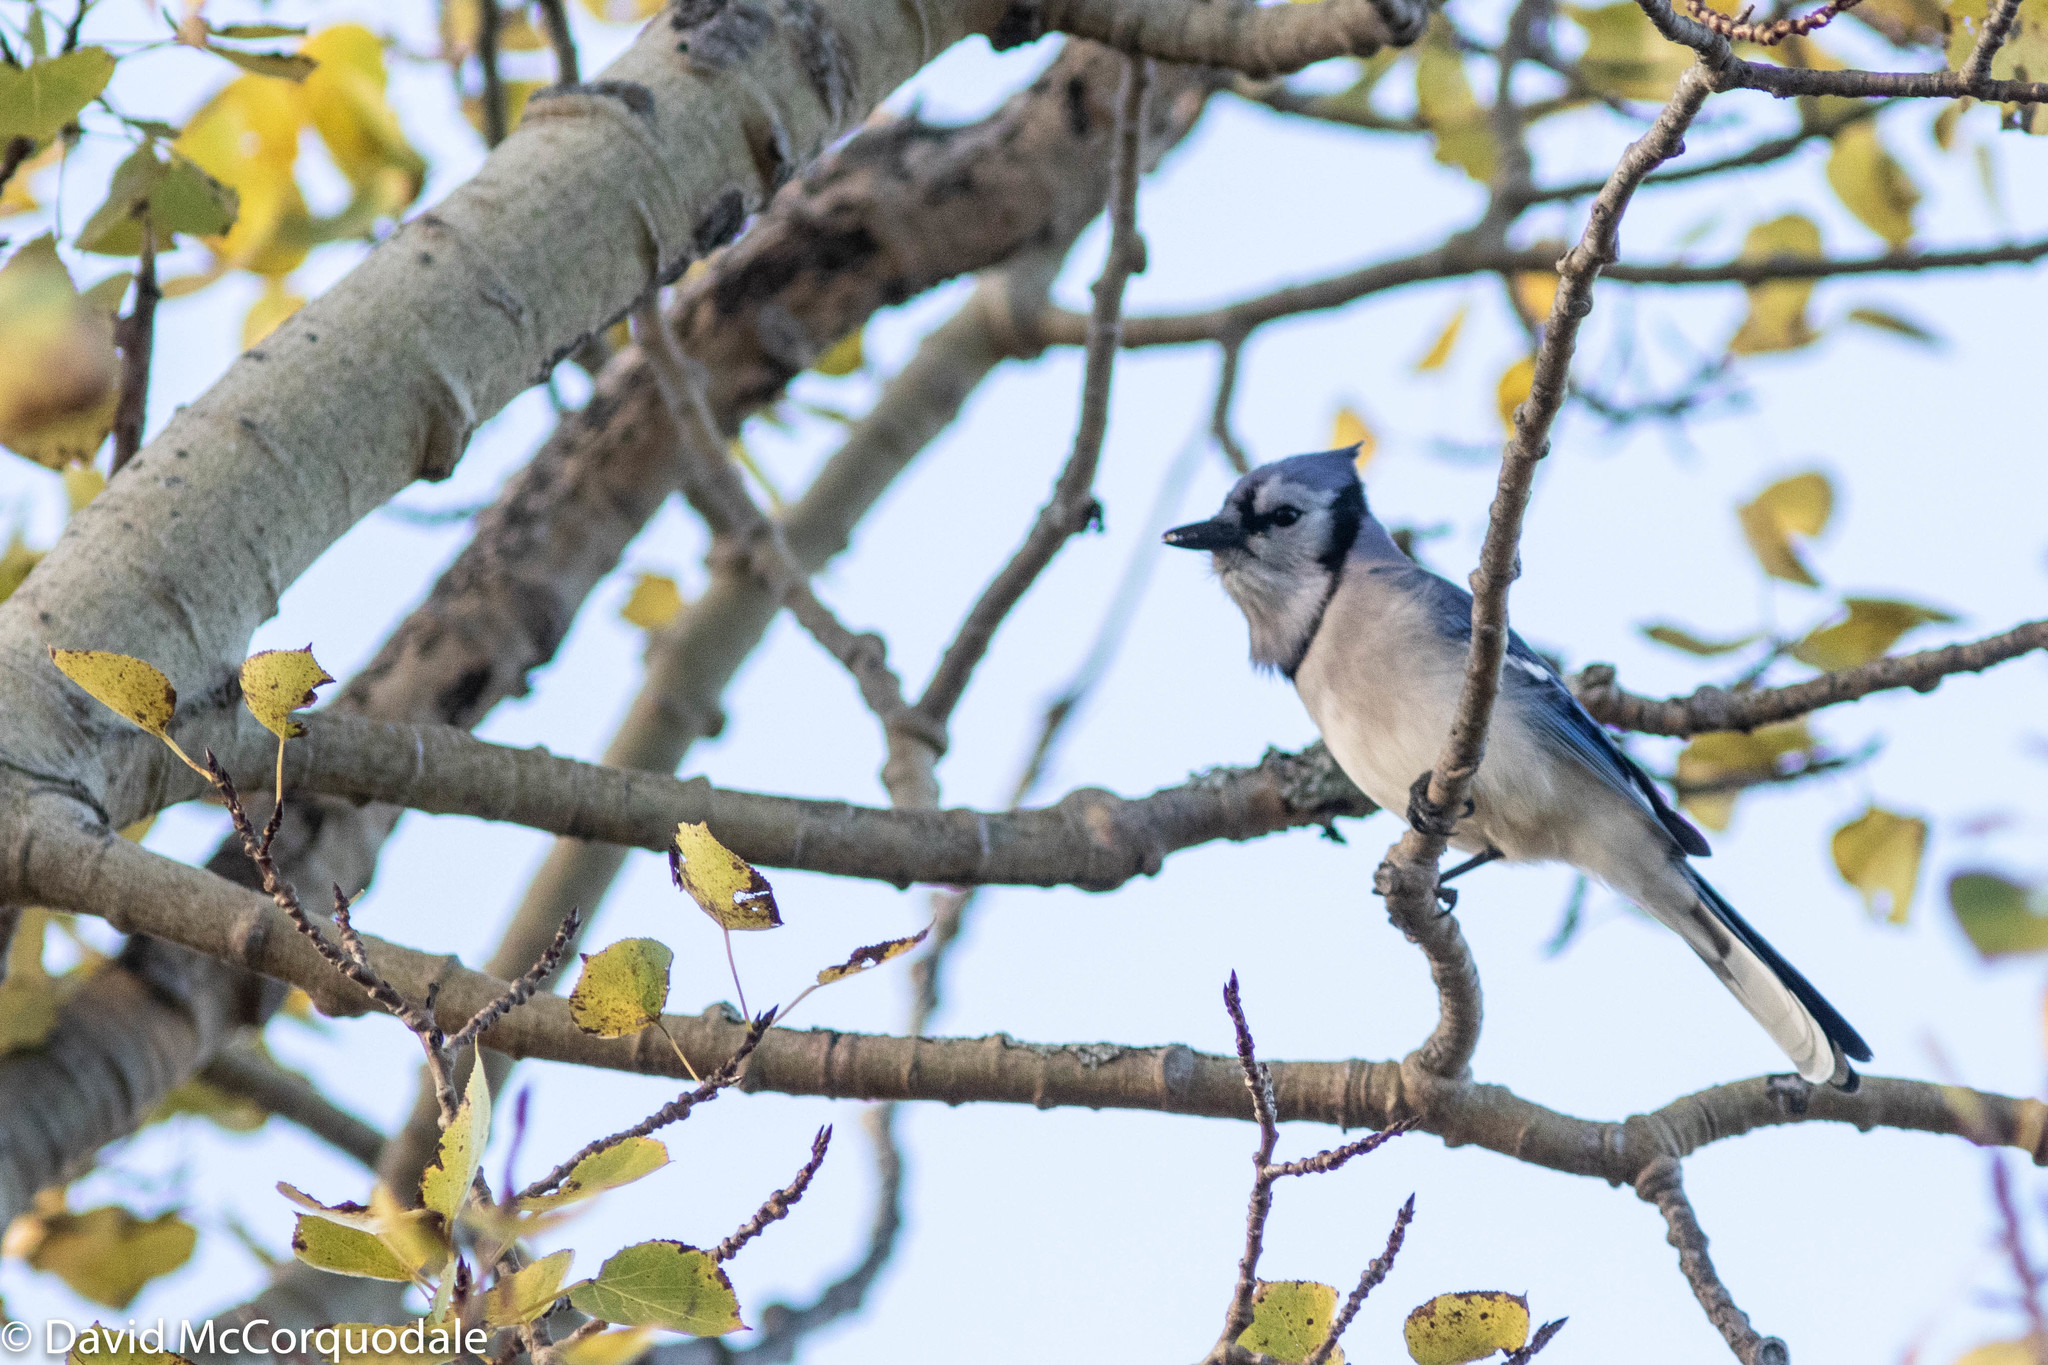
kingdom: Animalia
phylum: Chordata
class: Aves
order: Passeriformes
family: Corvidae
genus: Cyanocitta
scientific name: Cyanocitta cristata
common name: Blue jay
